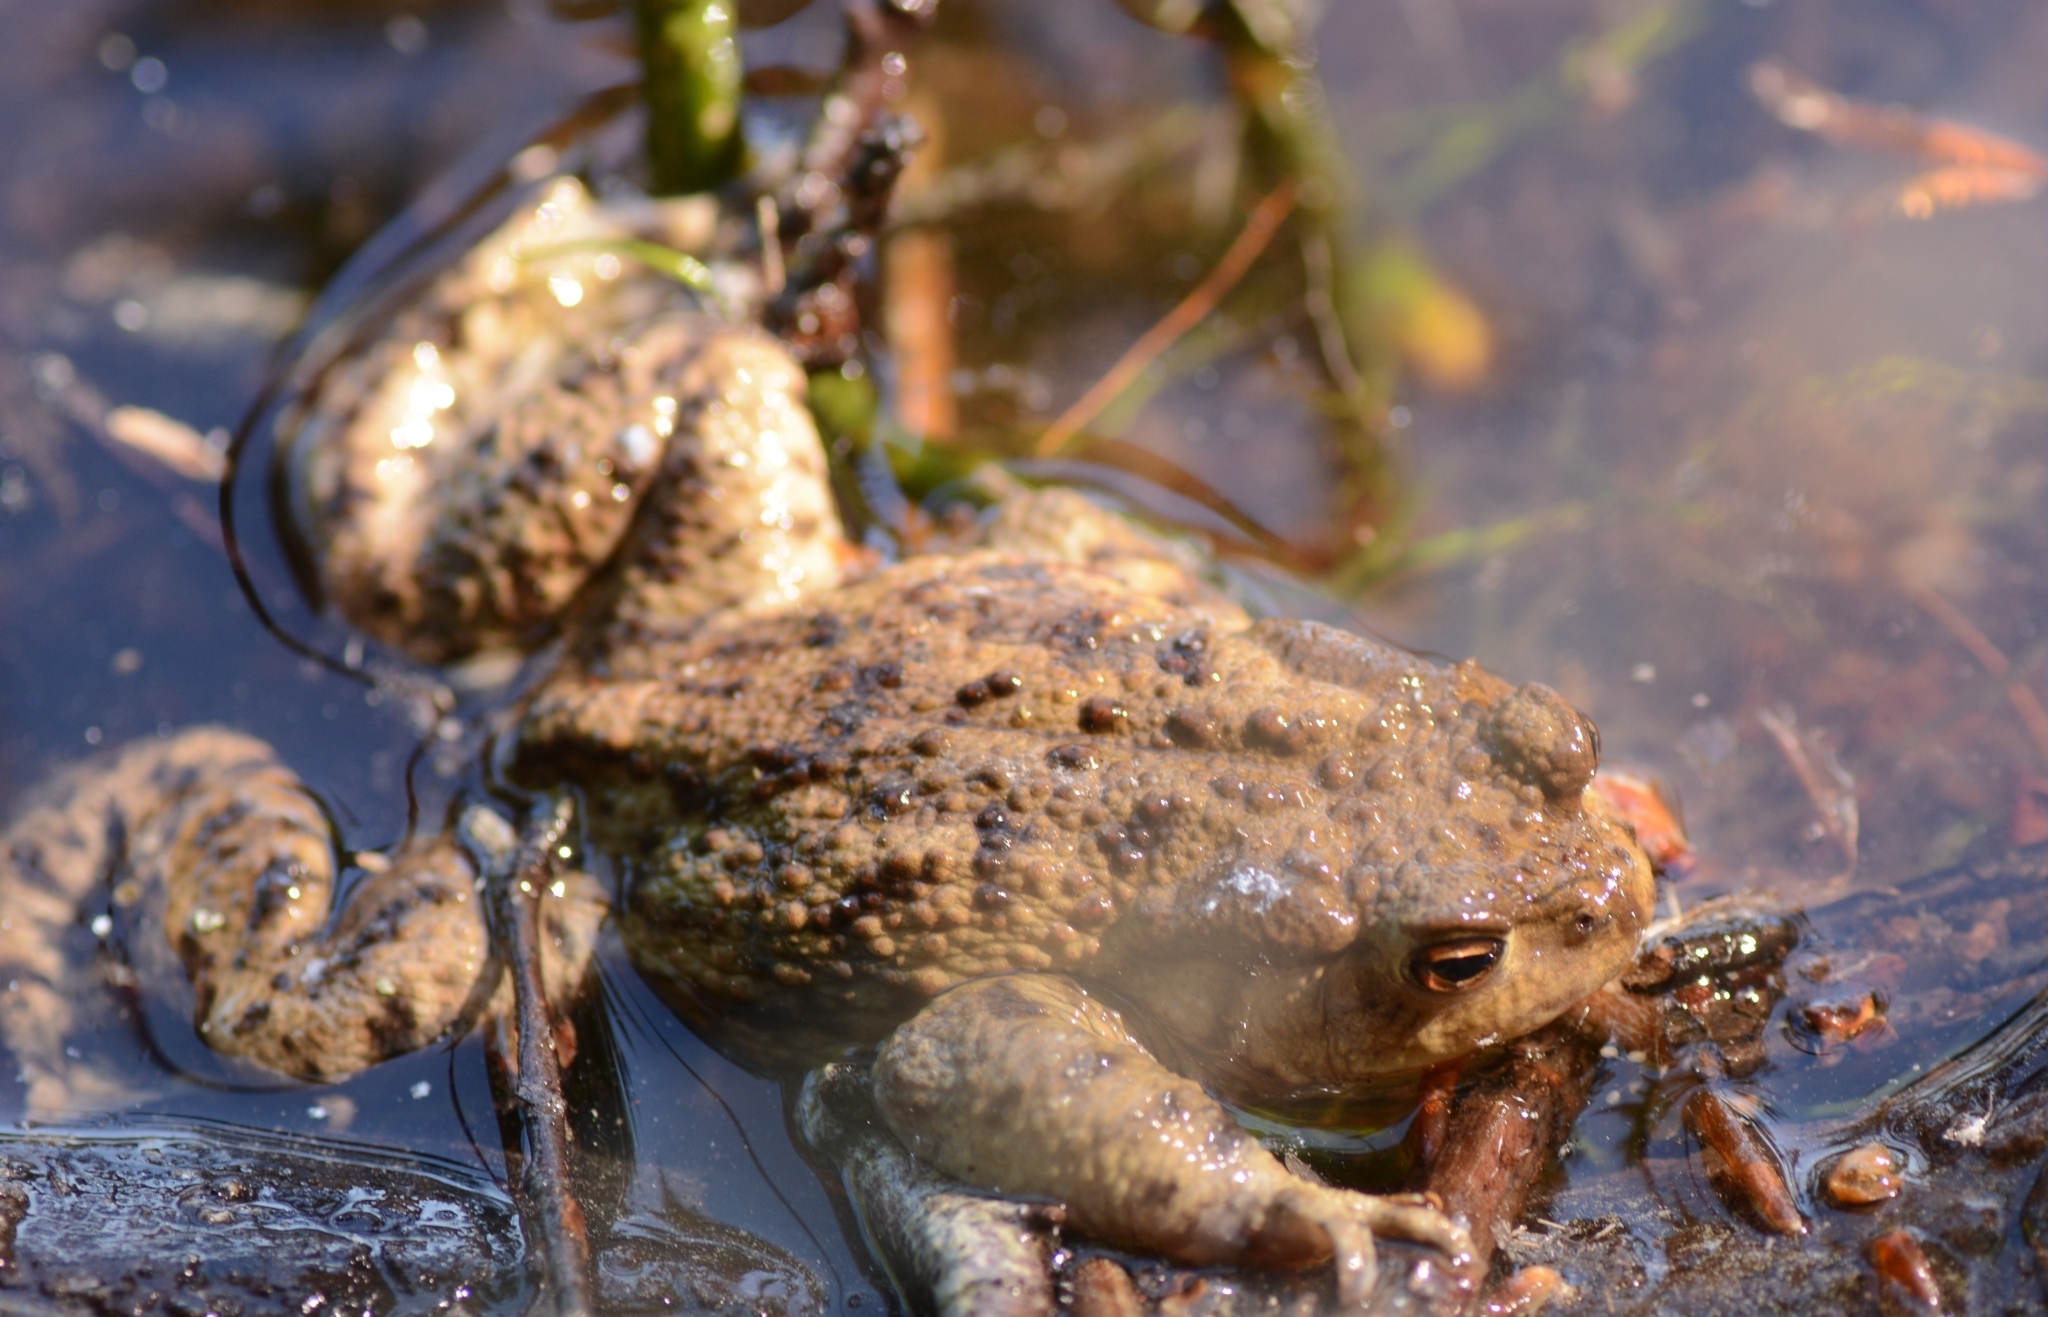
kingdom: Animalia
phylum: Chordata
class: Amphibia
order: Anura
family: Bufonidae
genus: Bufo
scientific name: Bufo bufo
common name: Common toad
